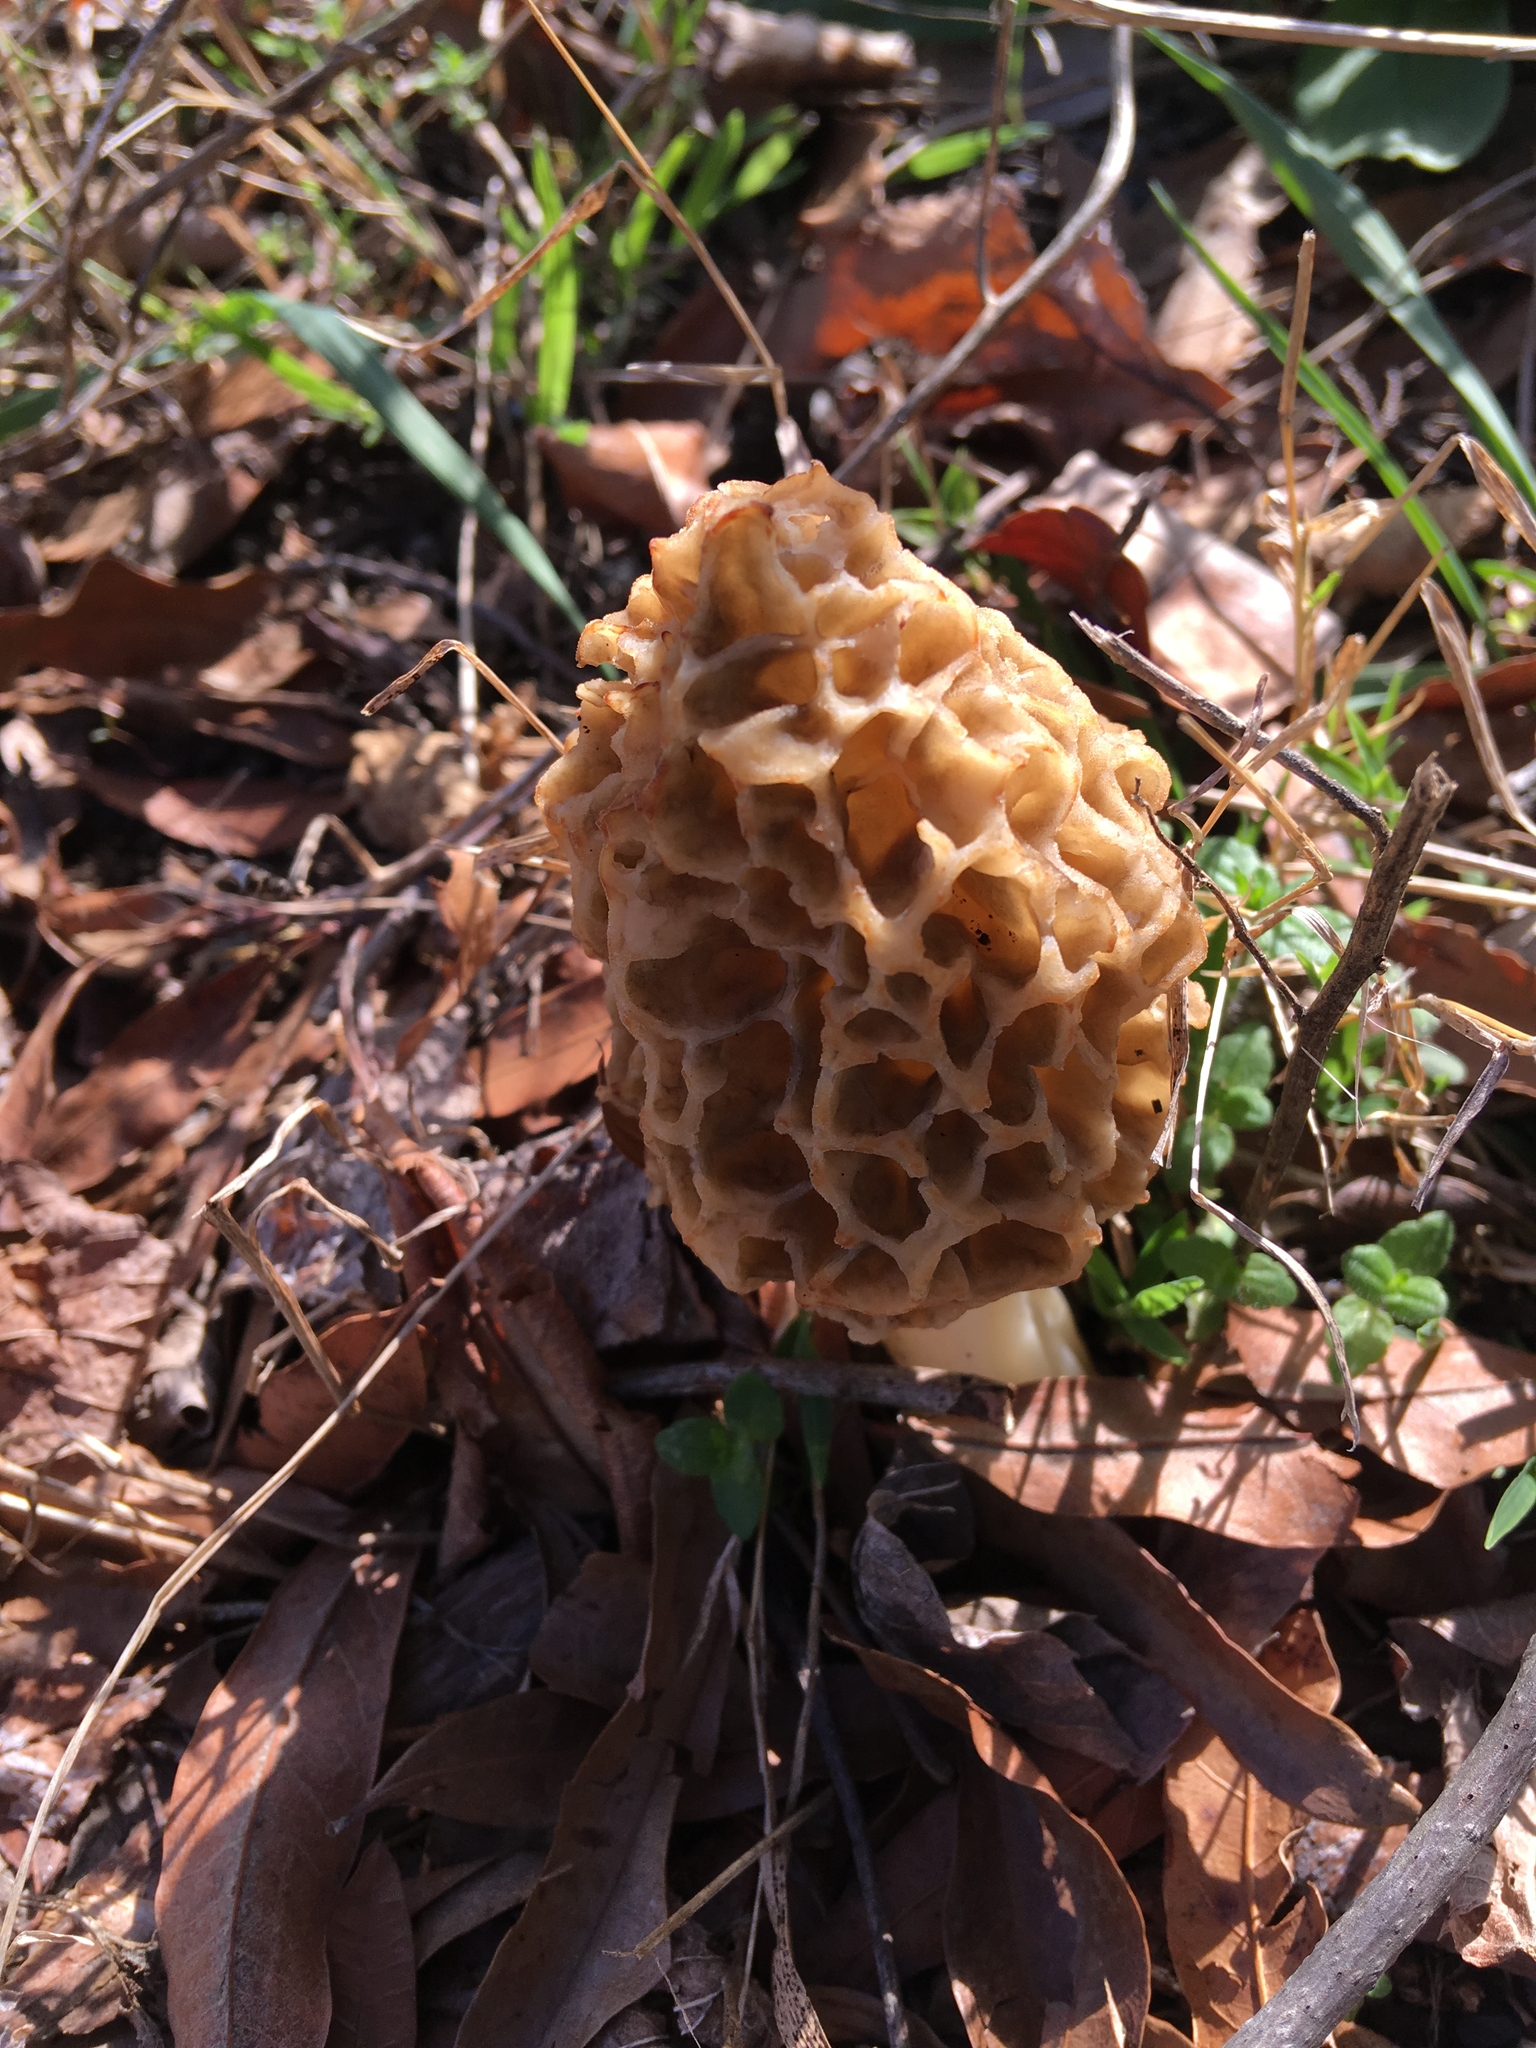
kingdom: Fungi
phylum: Ascomycota
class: Pezizomycetes
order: Pezizales
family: Morchellaceae
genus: Morchella
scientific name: Morchella esculenta
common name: Morel
